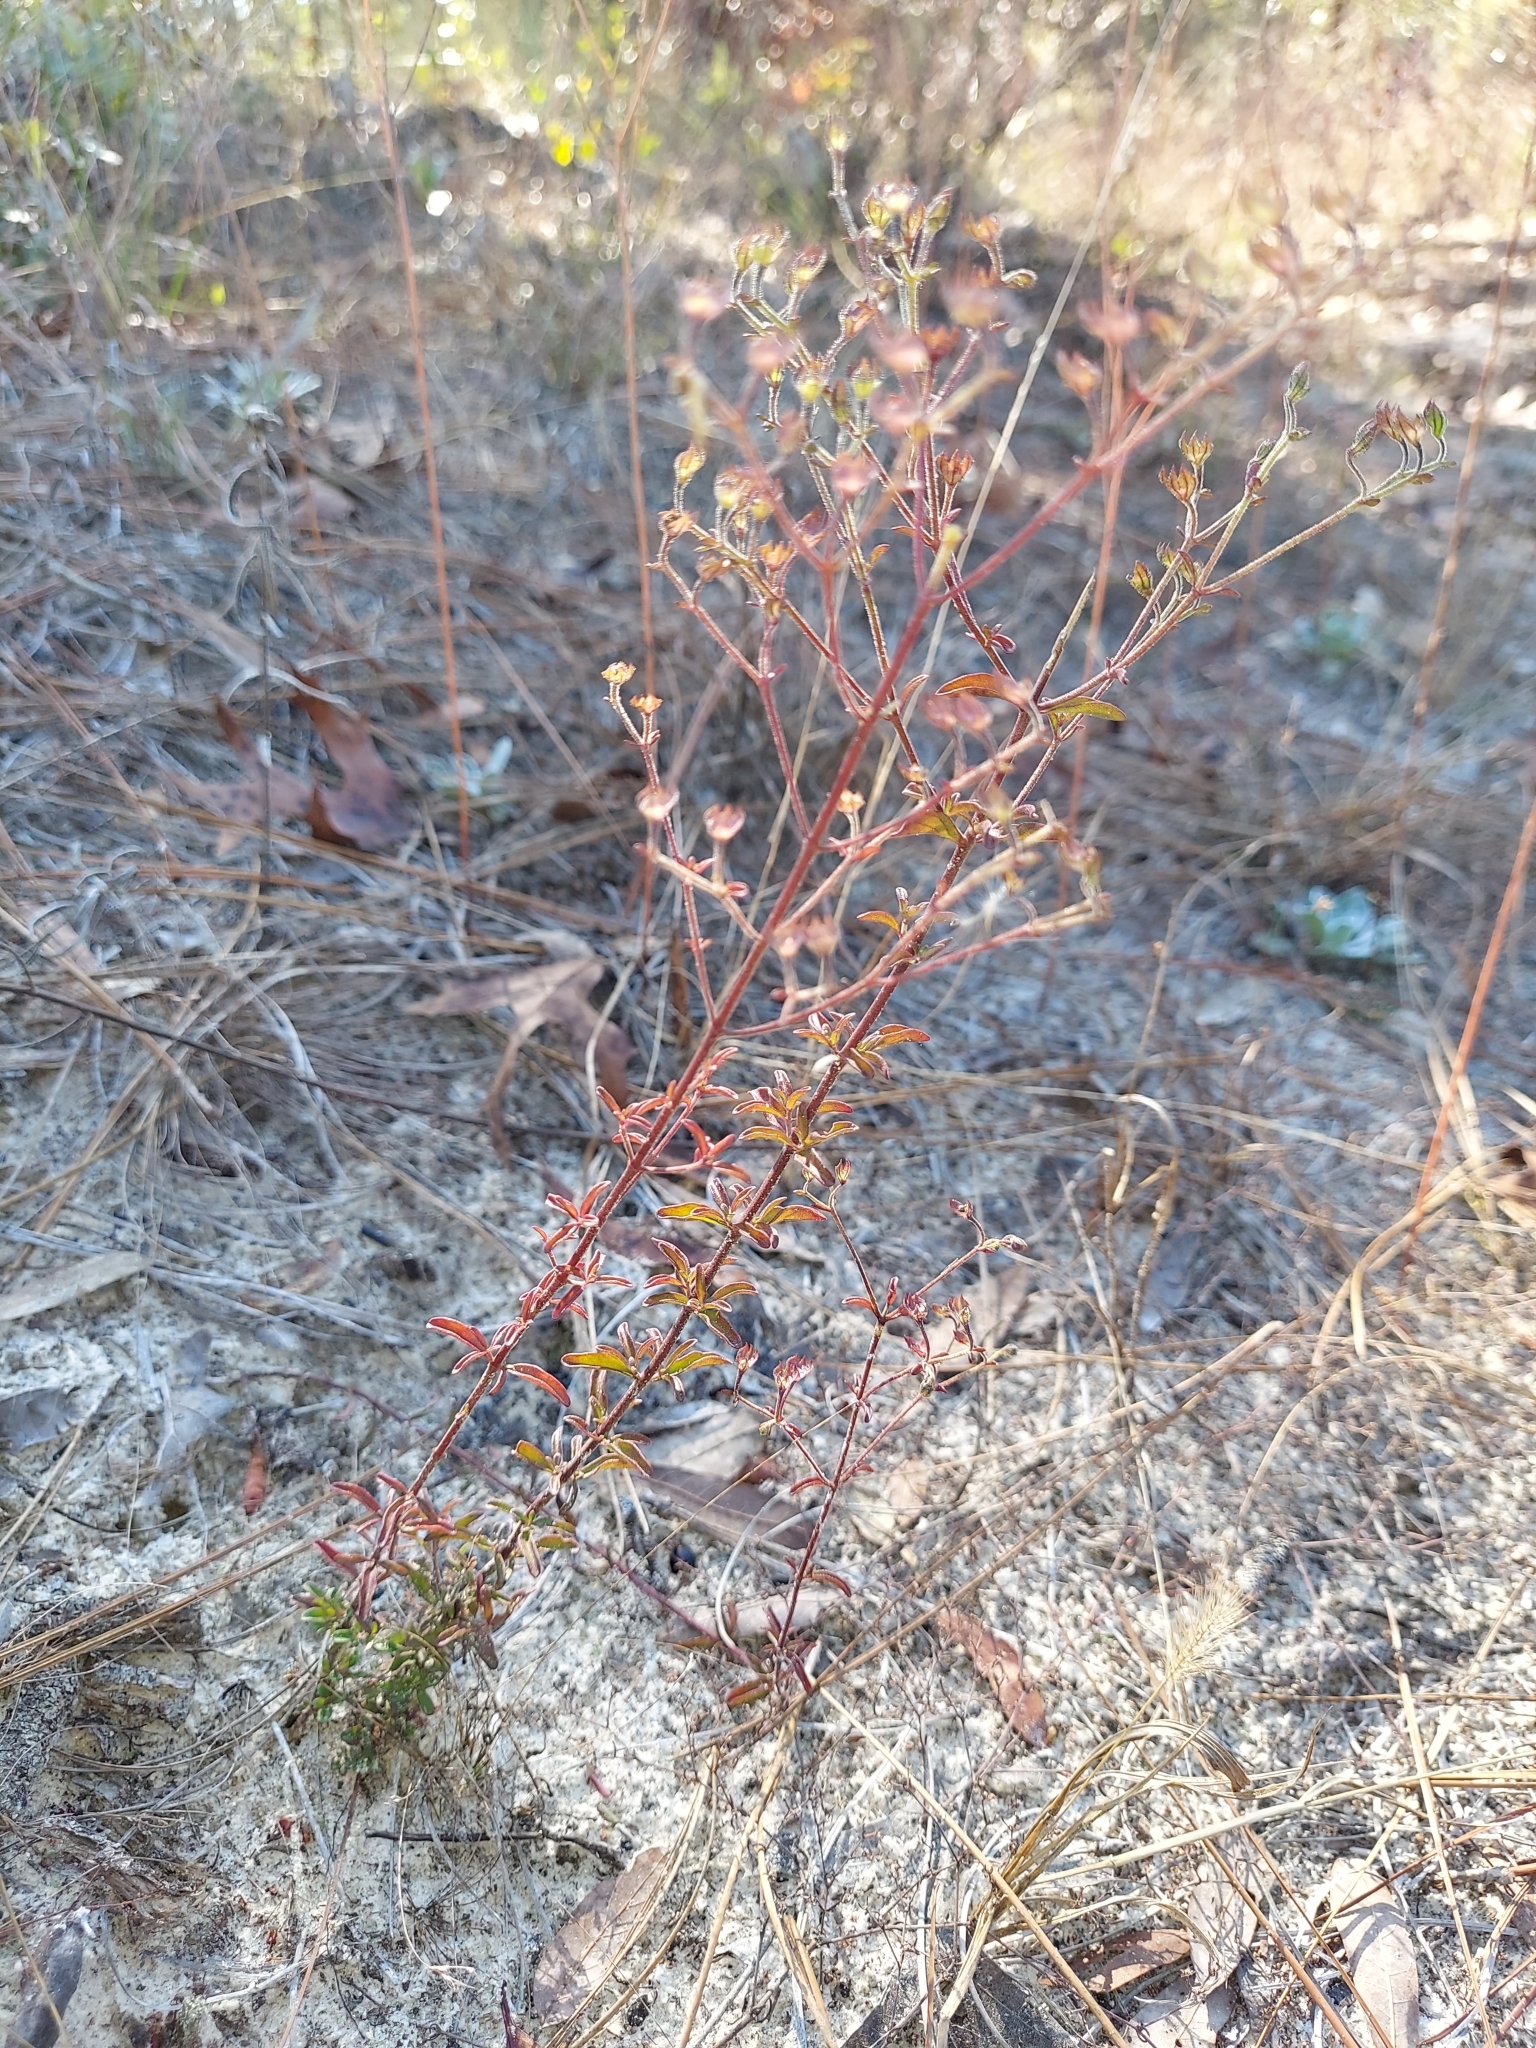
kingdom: Plantae
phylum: Tracheophyta
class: Magnoliopsida
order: Lamiales
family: Lamiaceae
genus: Trichostema
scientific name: Trichostema microphyllum
